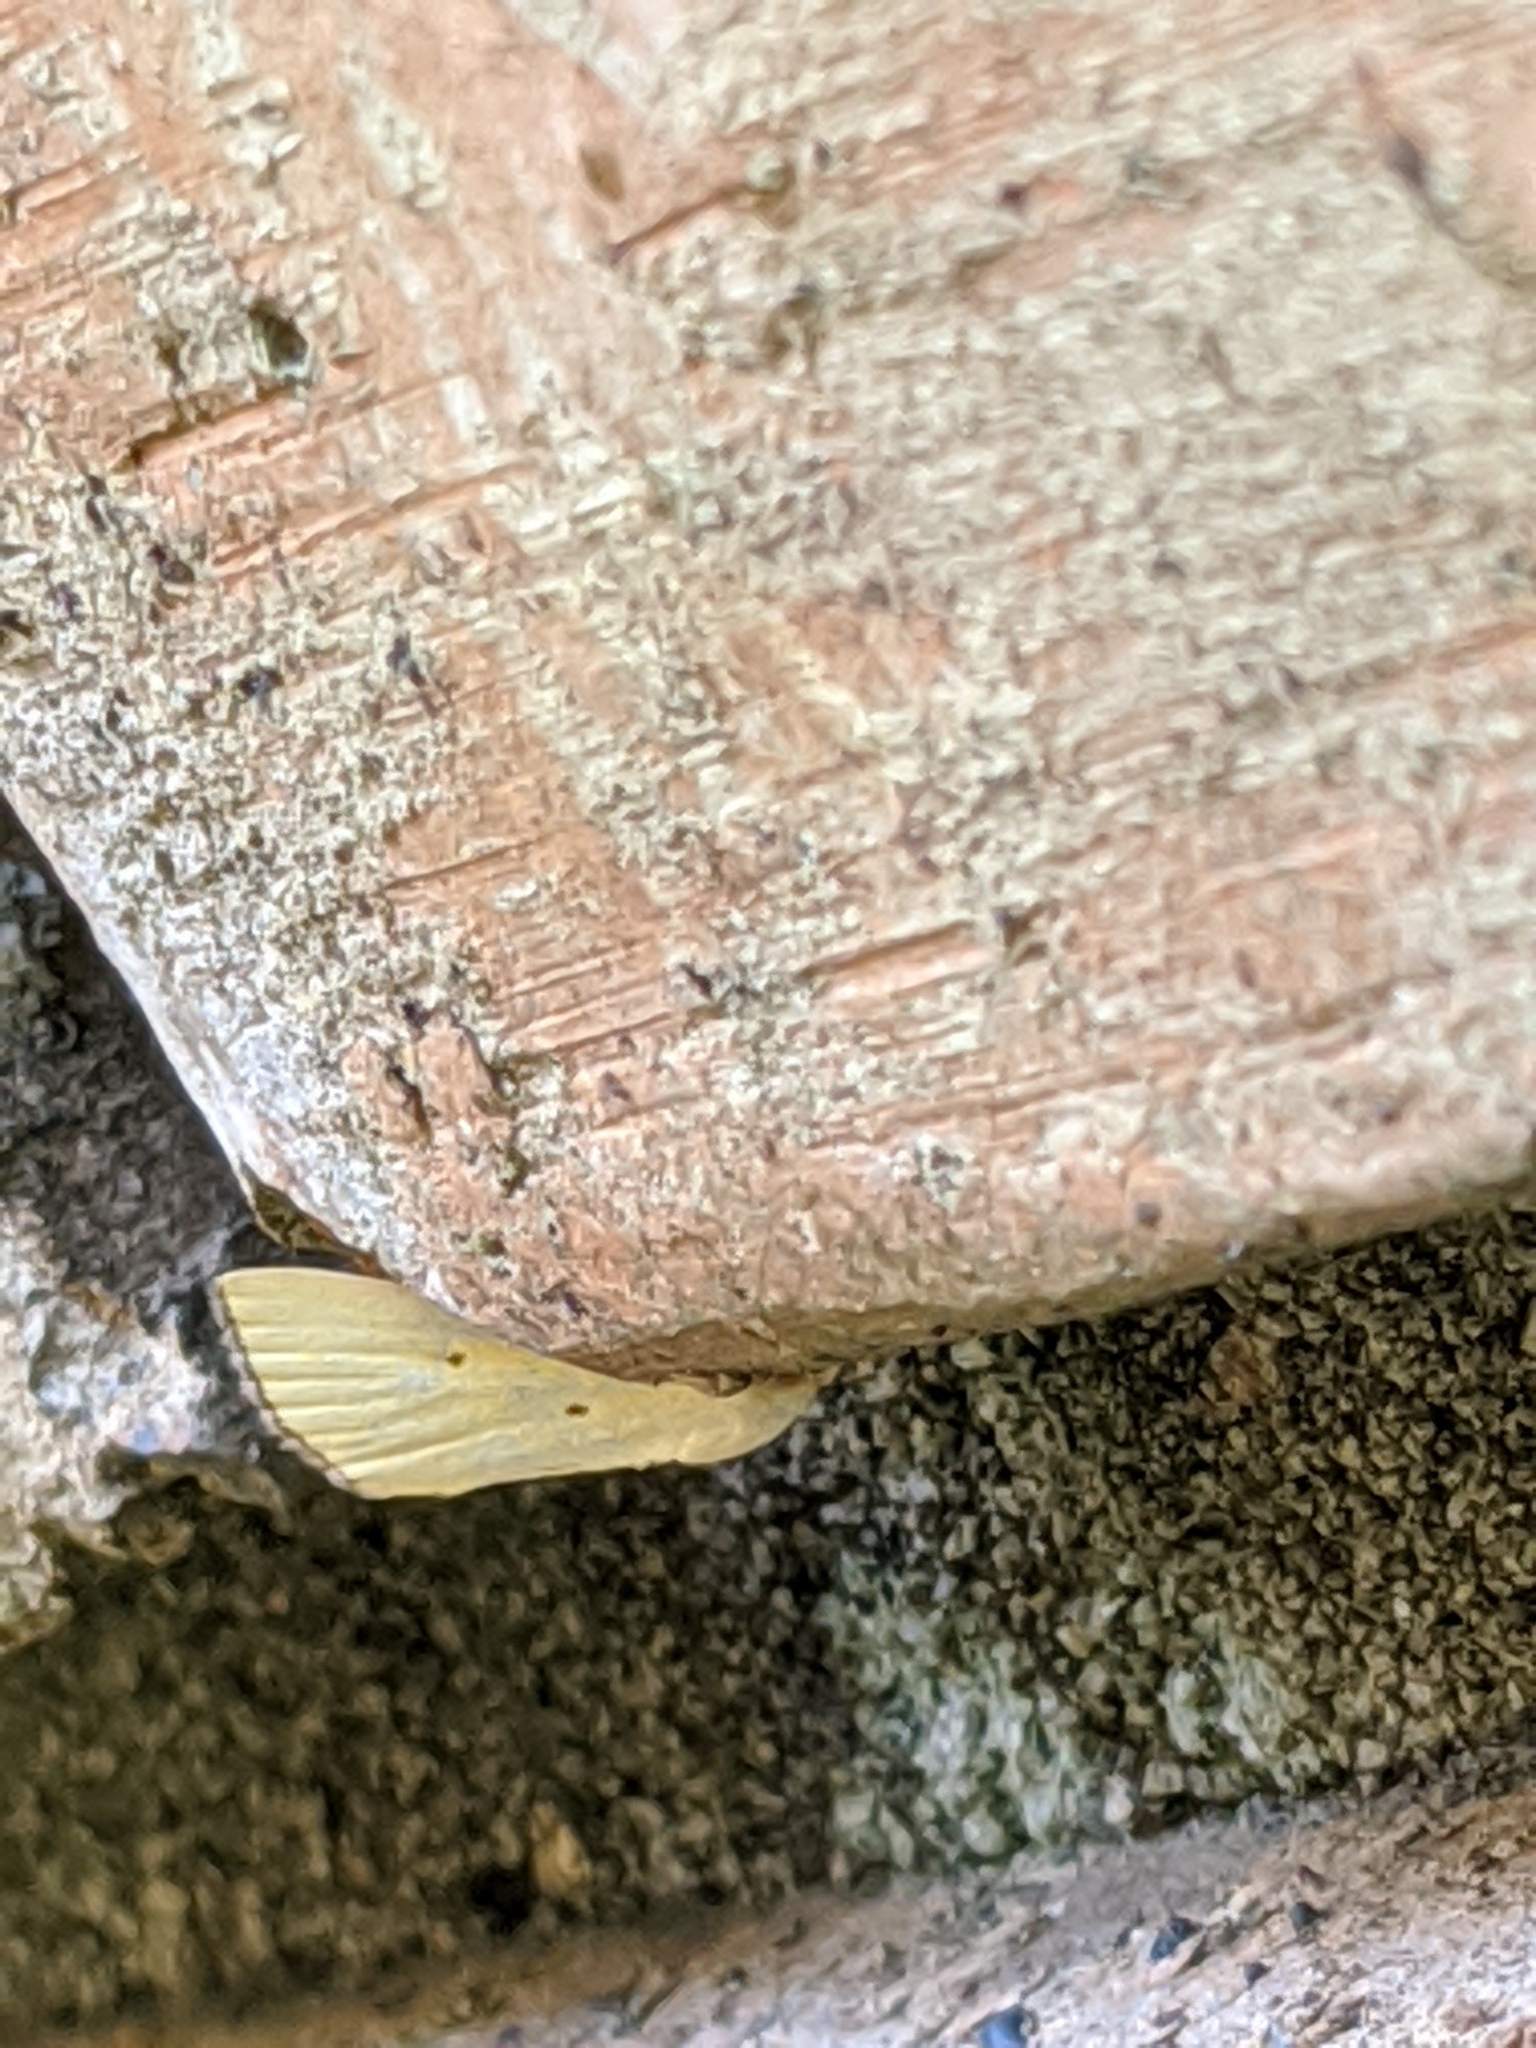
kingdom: Animalia
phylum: Arthropoda
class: Insecta
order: Lepidoptera
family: Noctuidae
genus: Marimatha
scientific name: Marimatha nigrofimbria
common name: Black-bordered lemon moth
